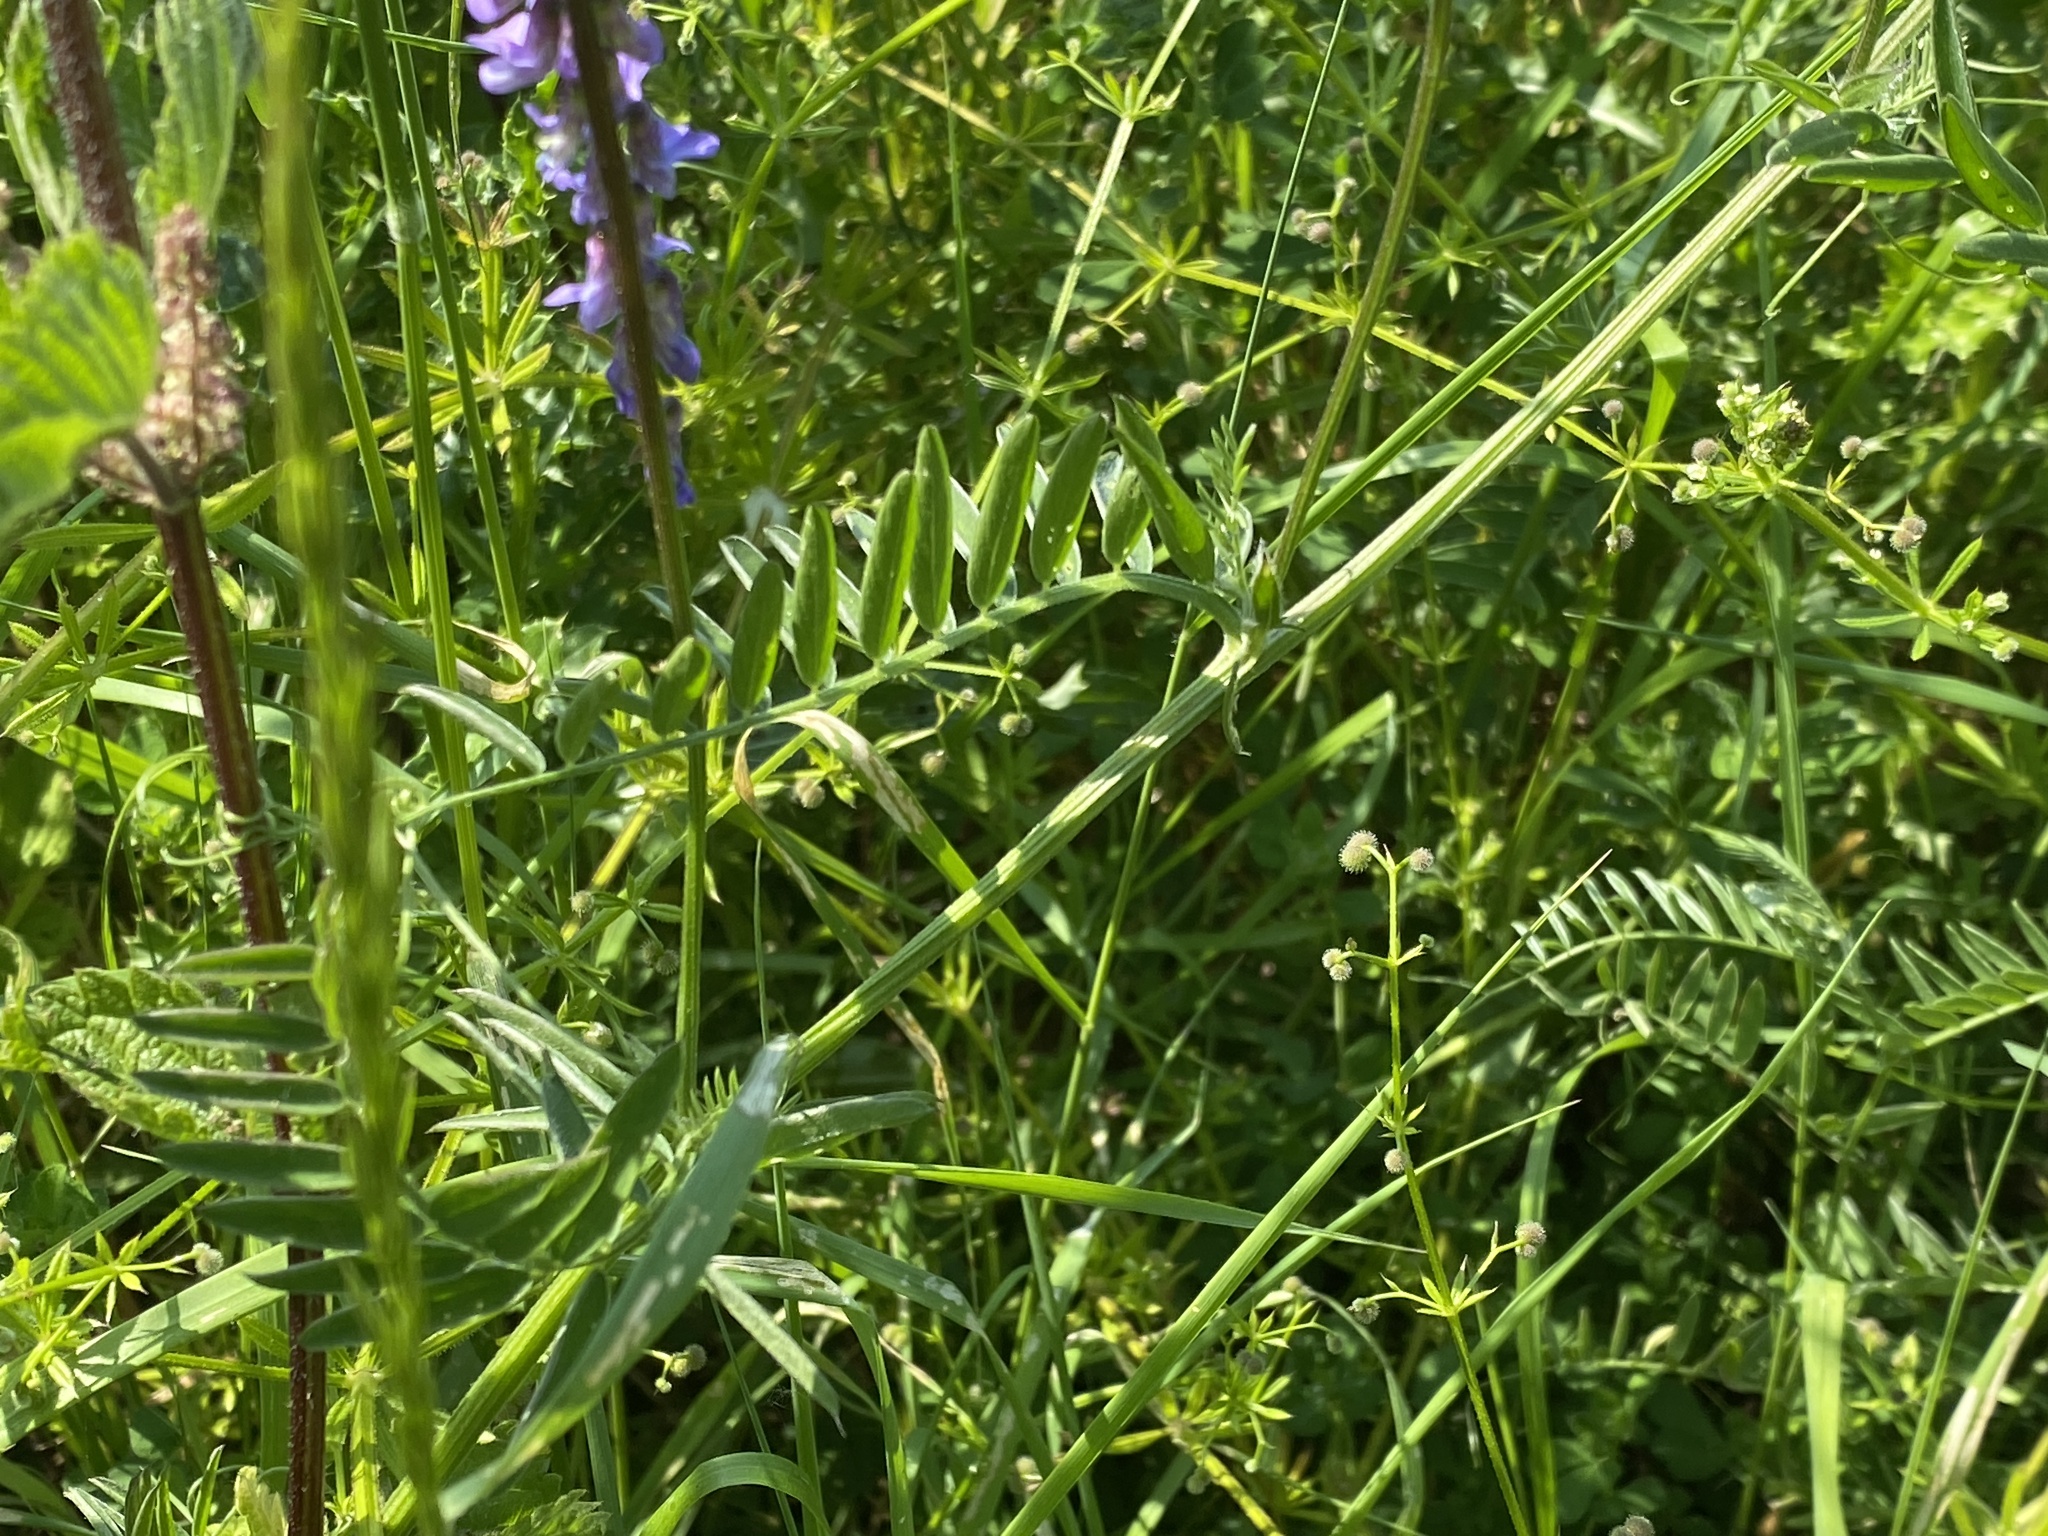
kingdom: Plantae
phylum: Tracheophyta
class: Magnoliopsida
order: Fabales
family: Fabaceae
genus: Vicia
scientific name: Vicia cracca
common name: Bird vetch
